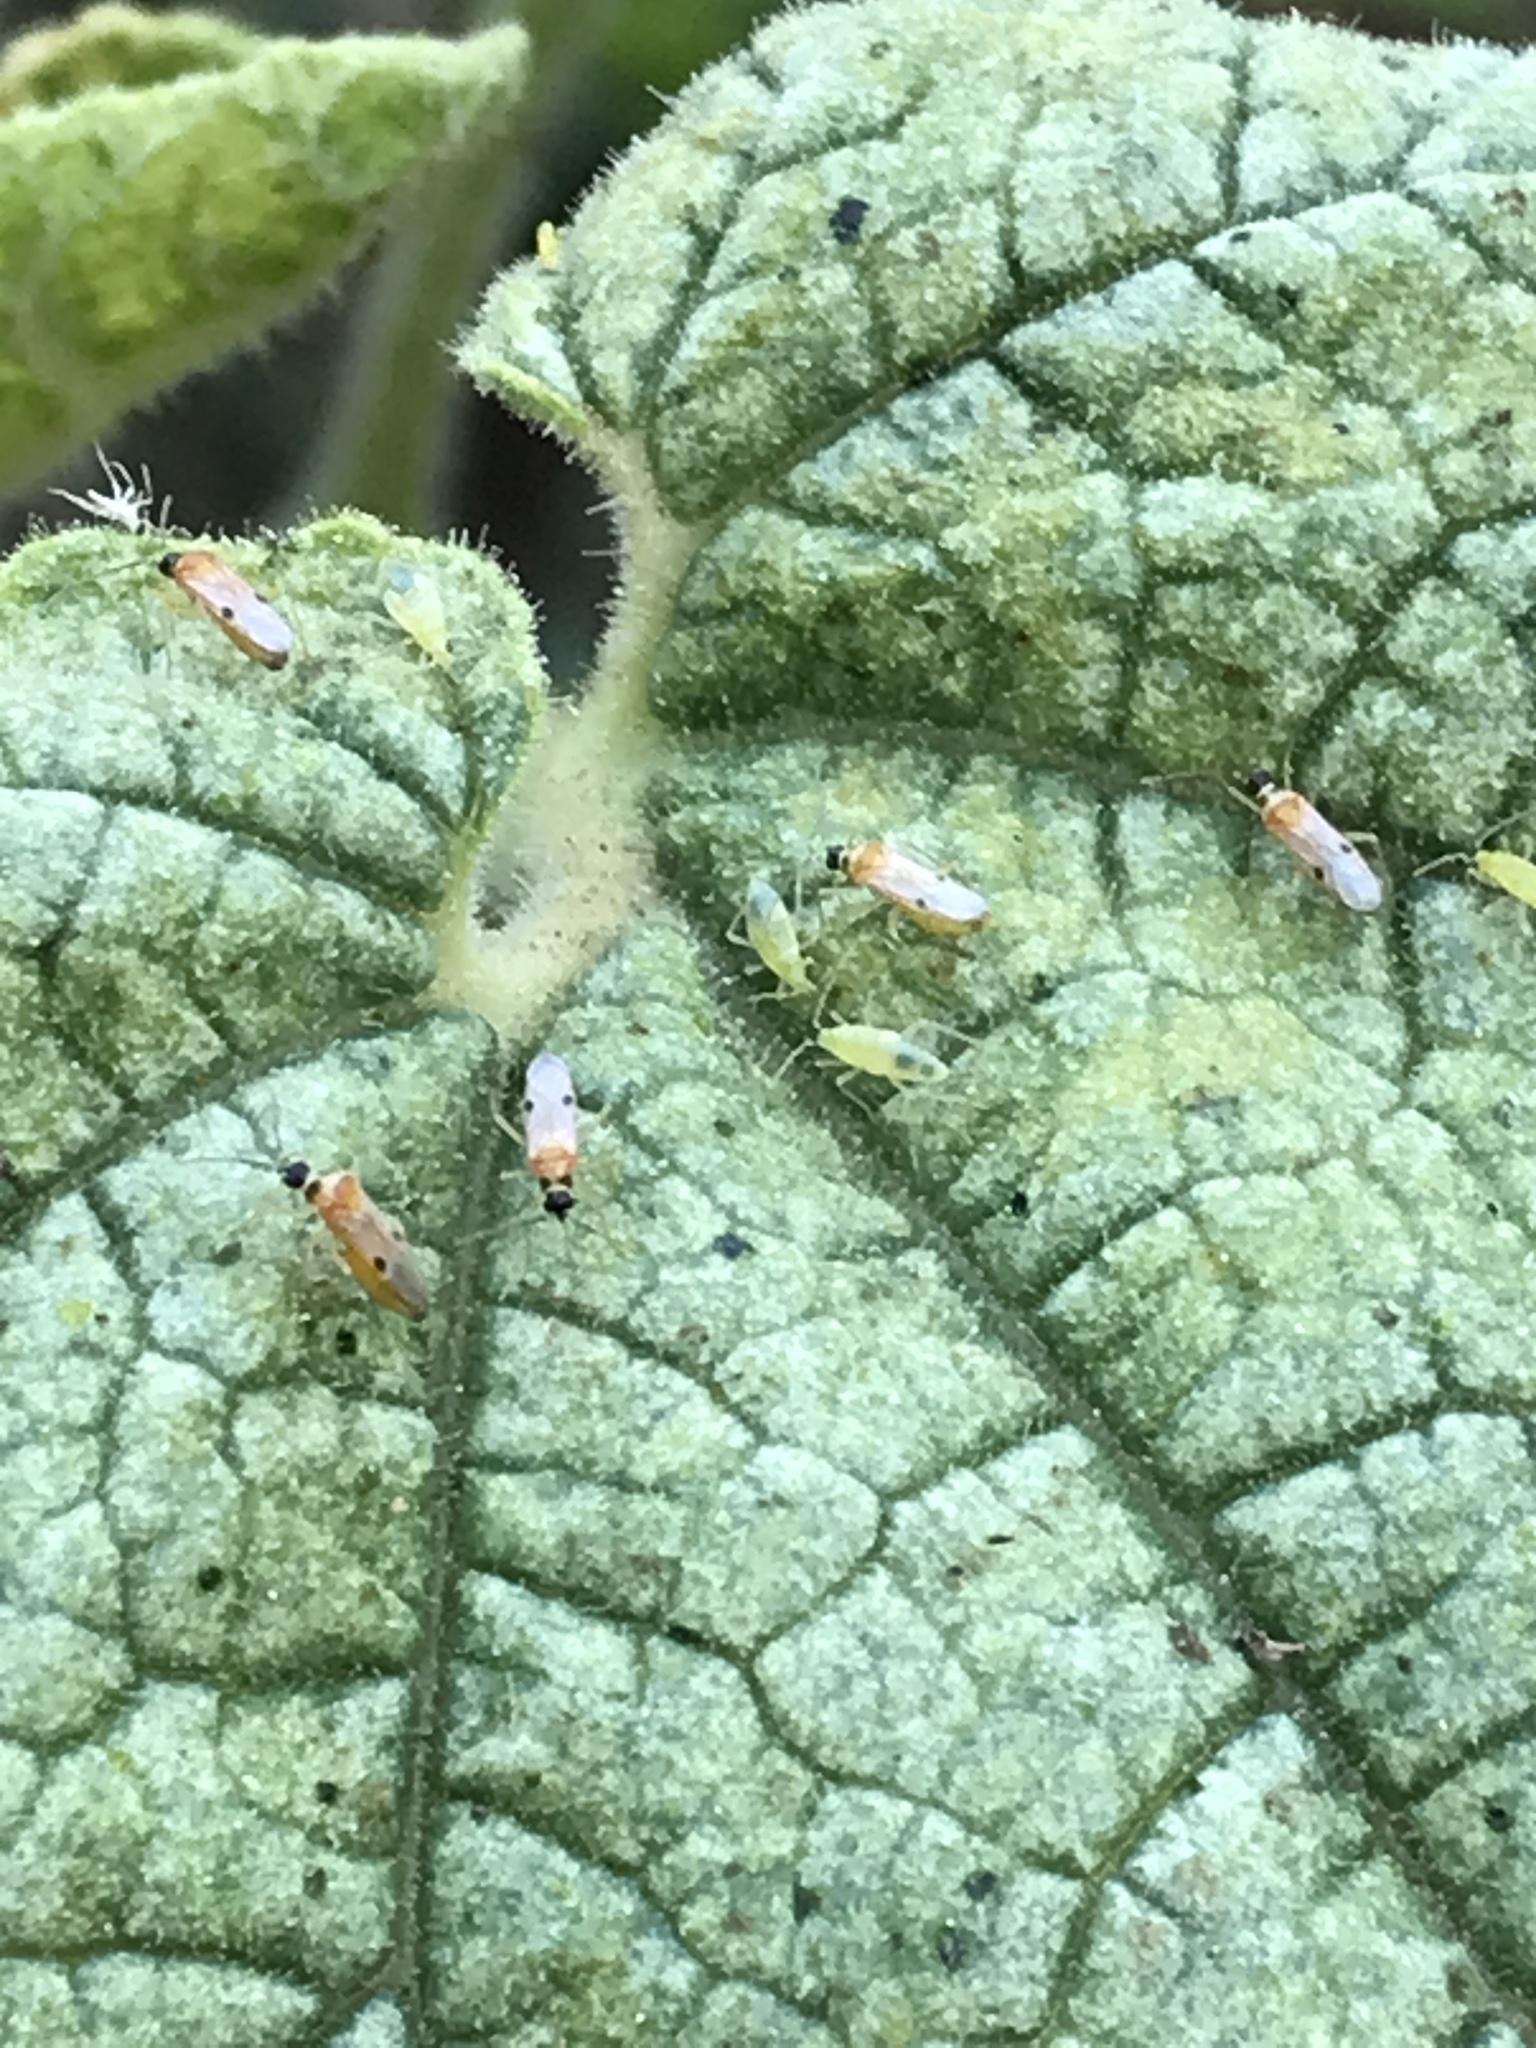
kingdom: Animalia
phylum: Arthropoda
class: Insecta
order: Hemiptera
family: Miridae
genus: Tupiocoris
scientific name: Tupiocoris notatus
